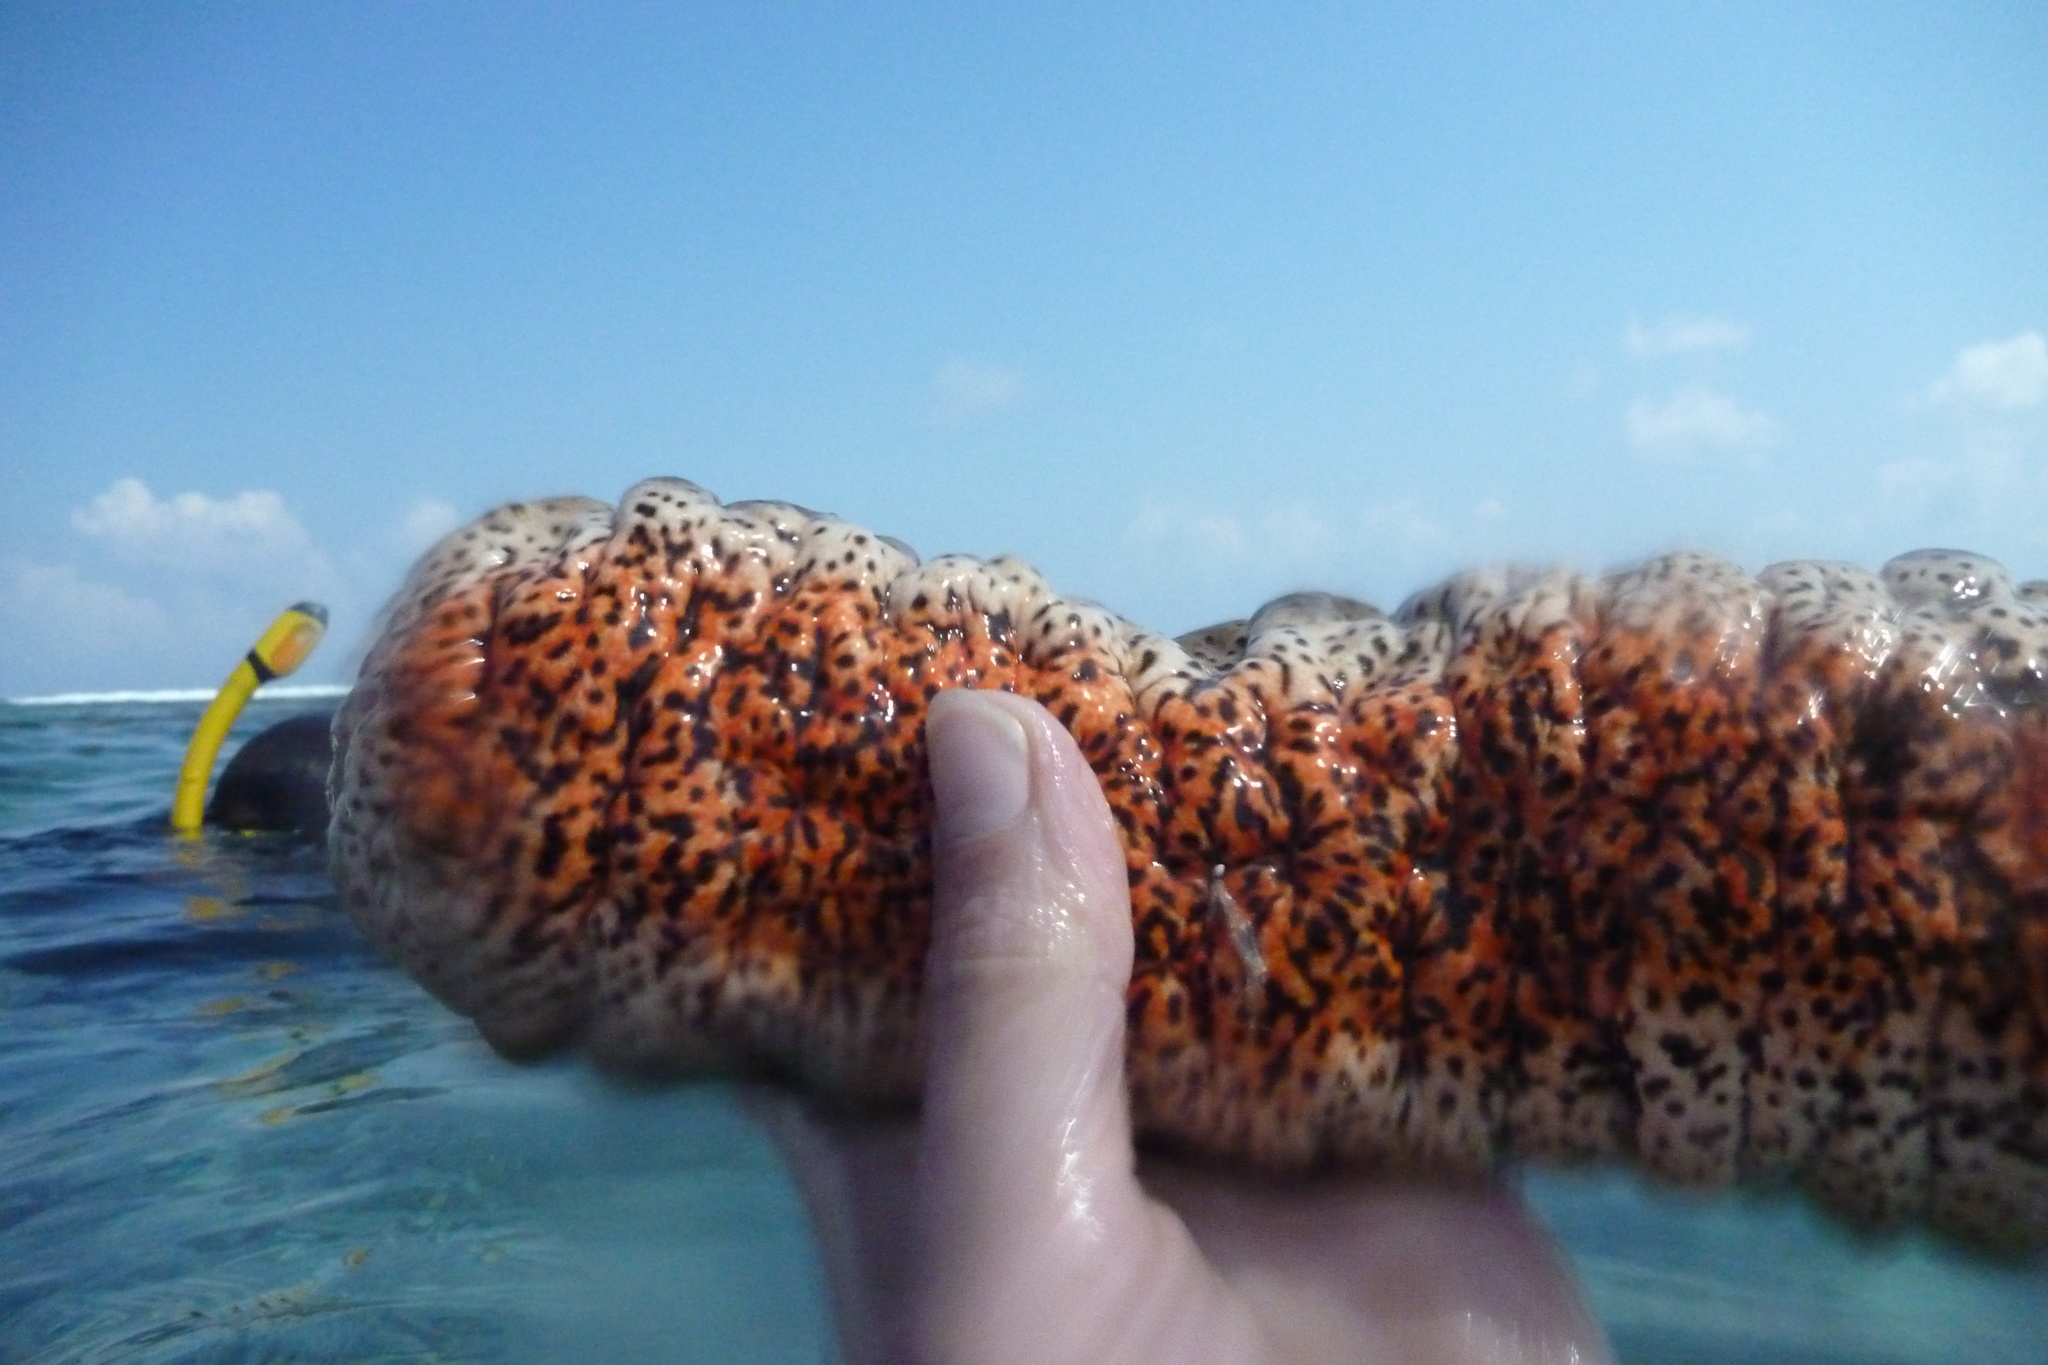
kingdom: Animalia
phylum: Echinodermata
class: Holothuroidea
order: Holothuriida
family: Holothuriidae
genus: Holothuria
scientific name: Holothuria mexicana
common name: Donkey dung sea cucumber
